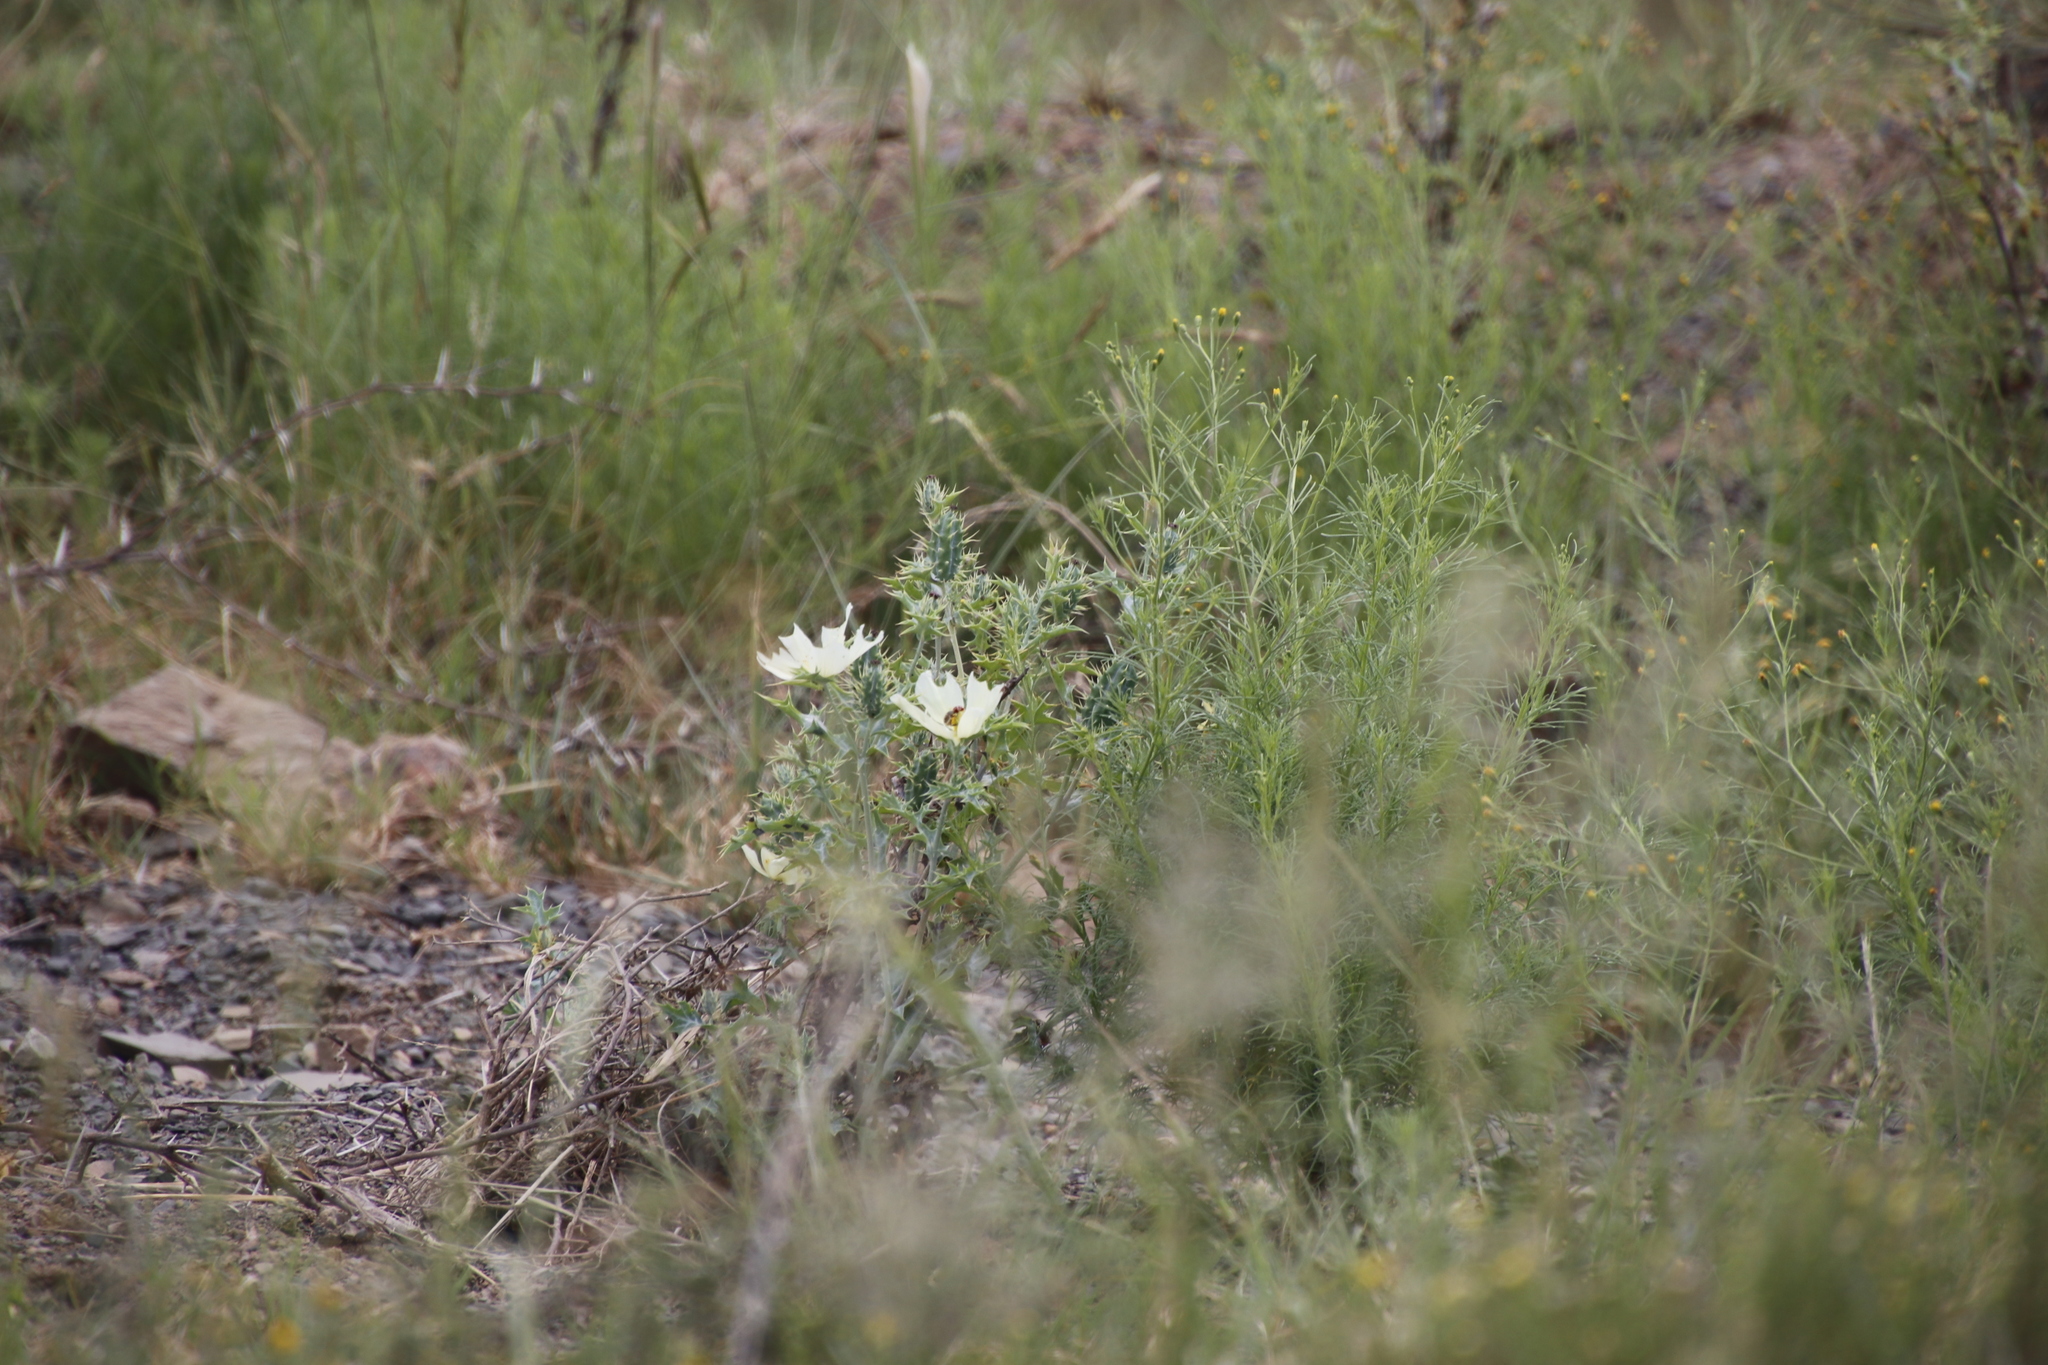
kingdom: Plantae
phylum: Tracheophyta
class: Magnoliopsida
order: Ranunculales
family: Papaveraceae
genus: Argemone
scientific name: Argemone ochroleuca
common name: White-flower mexican-poppy
